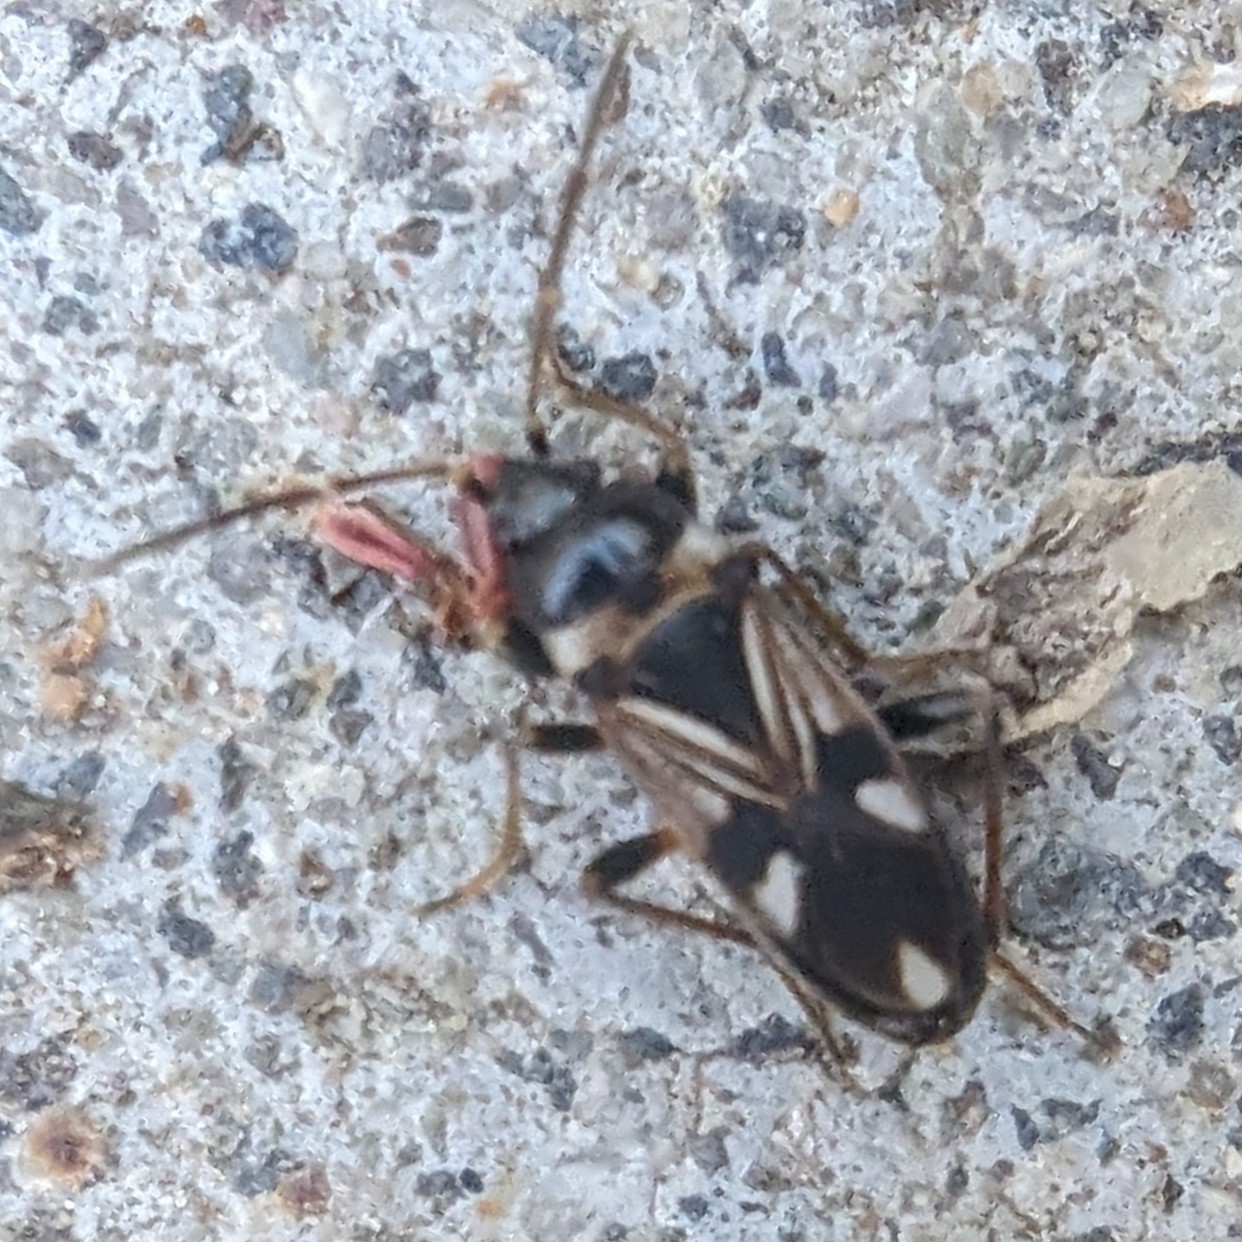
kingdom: Animalia
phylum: Arthropoda
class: Insecta
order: Hemiptera
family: Rhyparochromidae
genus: Raglius
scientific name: Raglius alboacuminatus
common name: Dirt-colored seed bug
